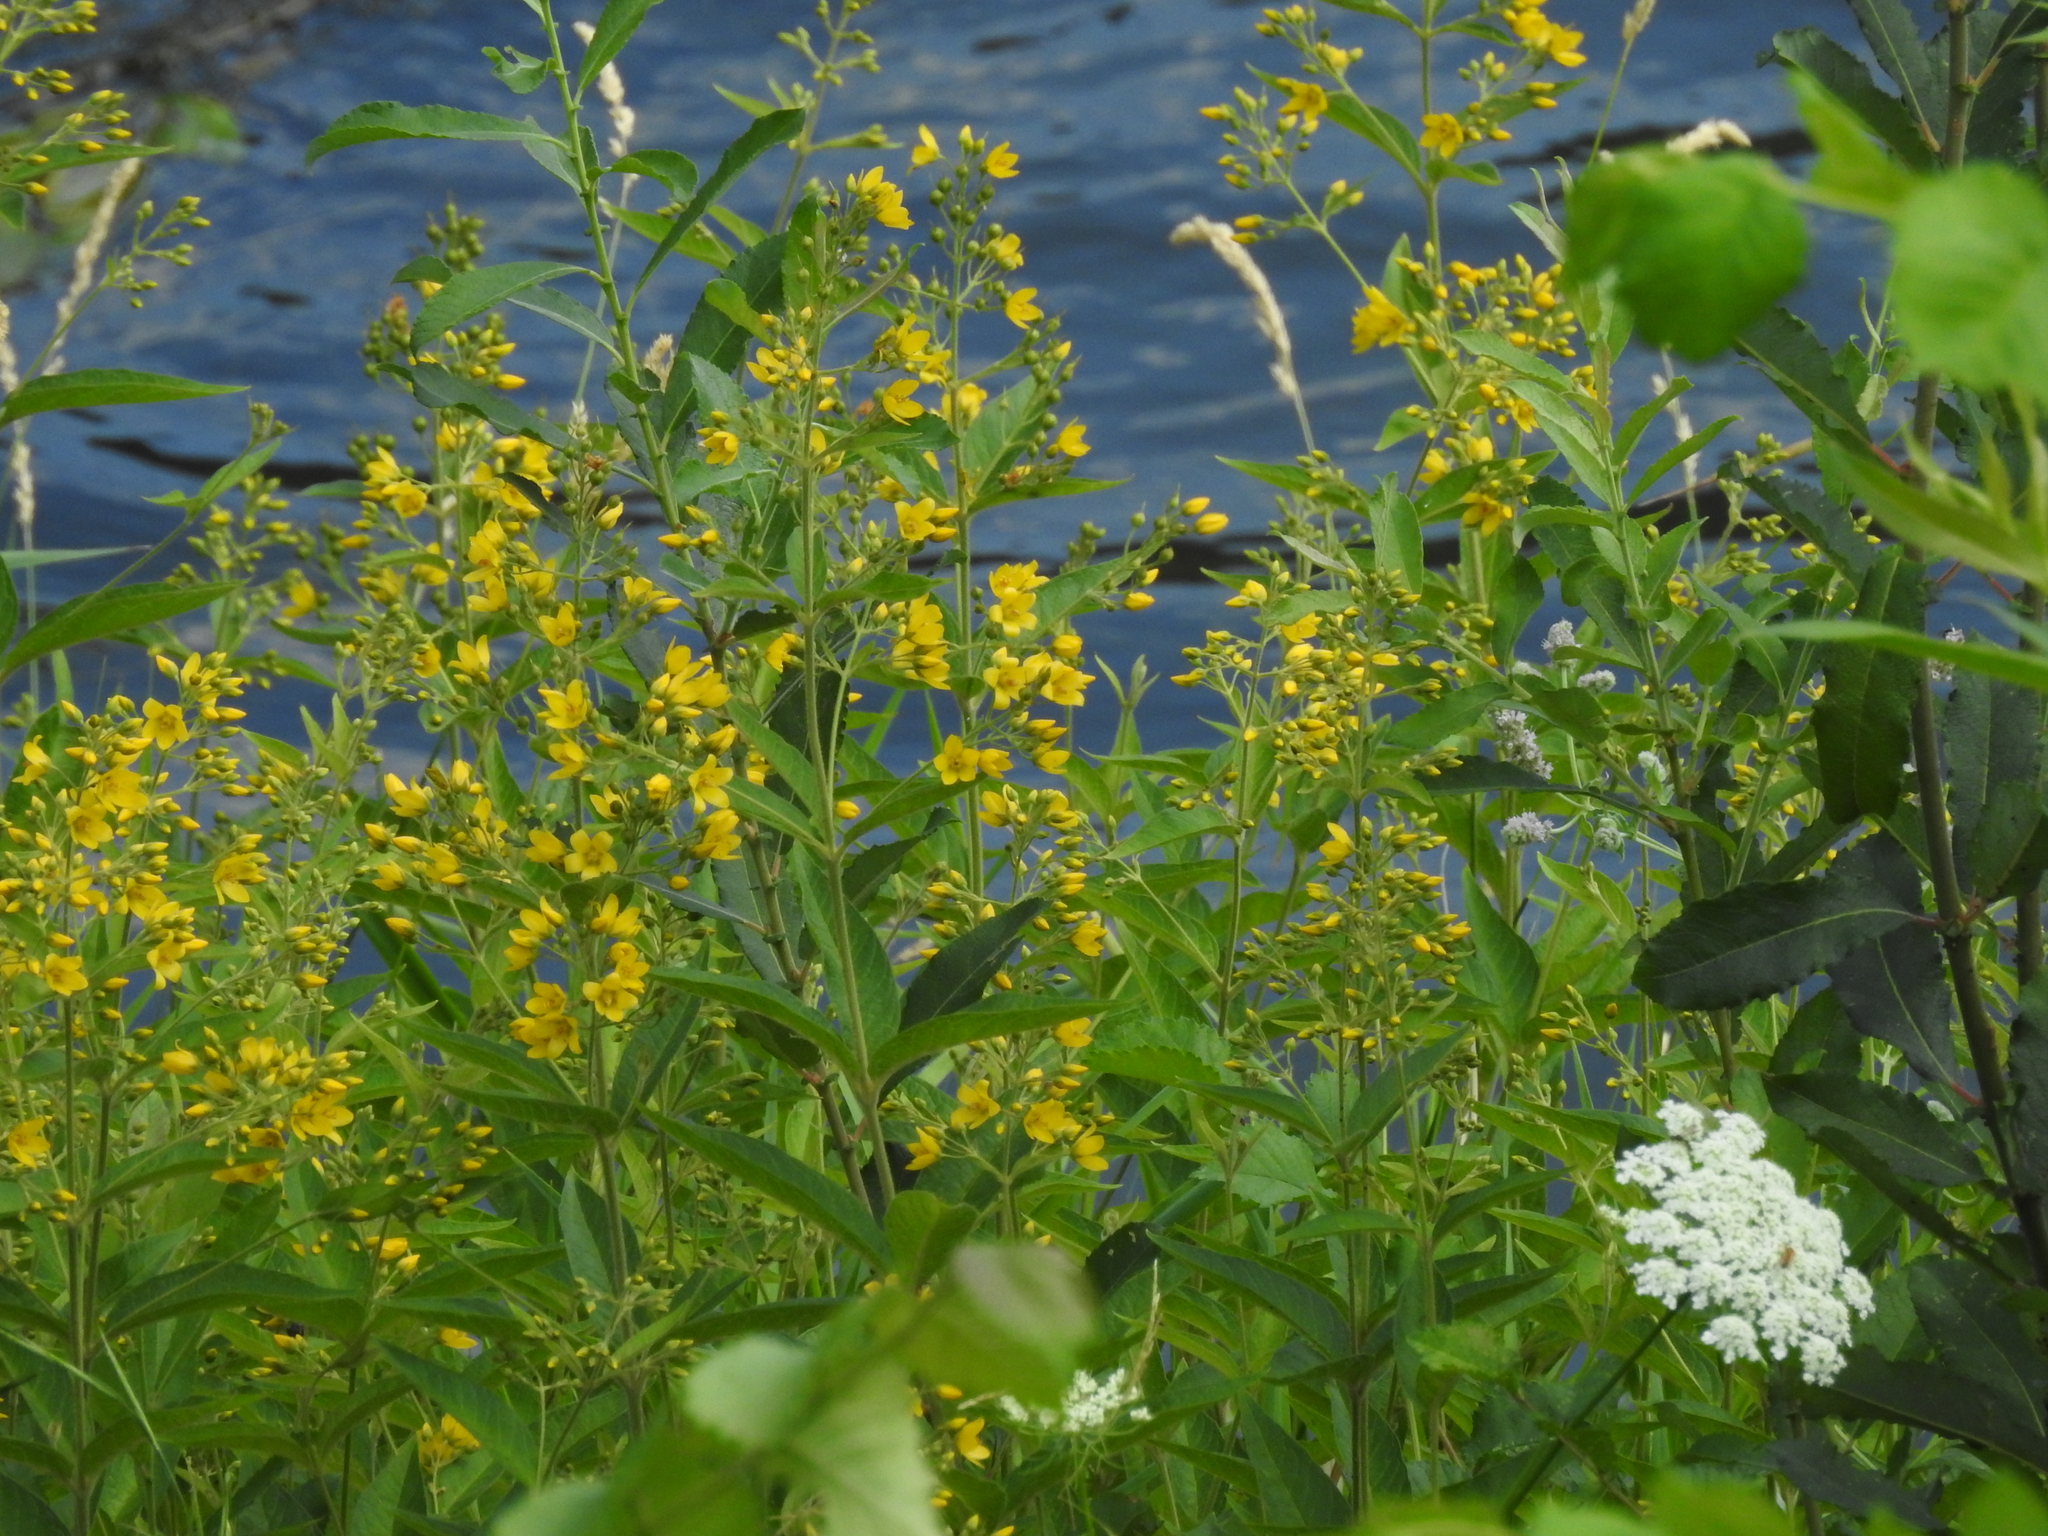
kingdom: Plantae
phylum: Tracheophyta
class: Magnoliopsida
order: Ericales
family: Primulaceae
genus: Lysimachia
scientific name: Lysimachia vulgaris
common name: Yellow loosestrife
